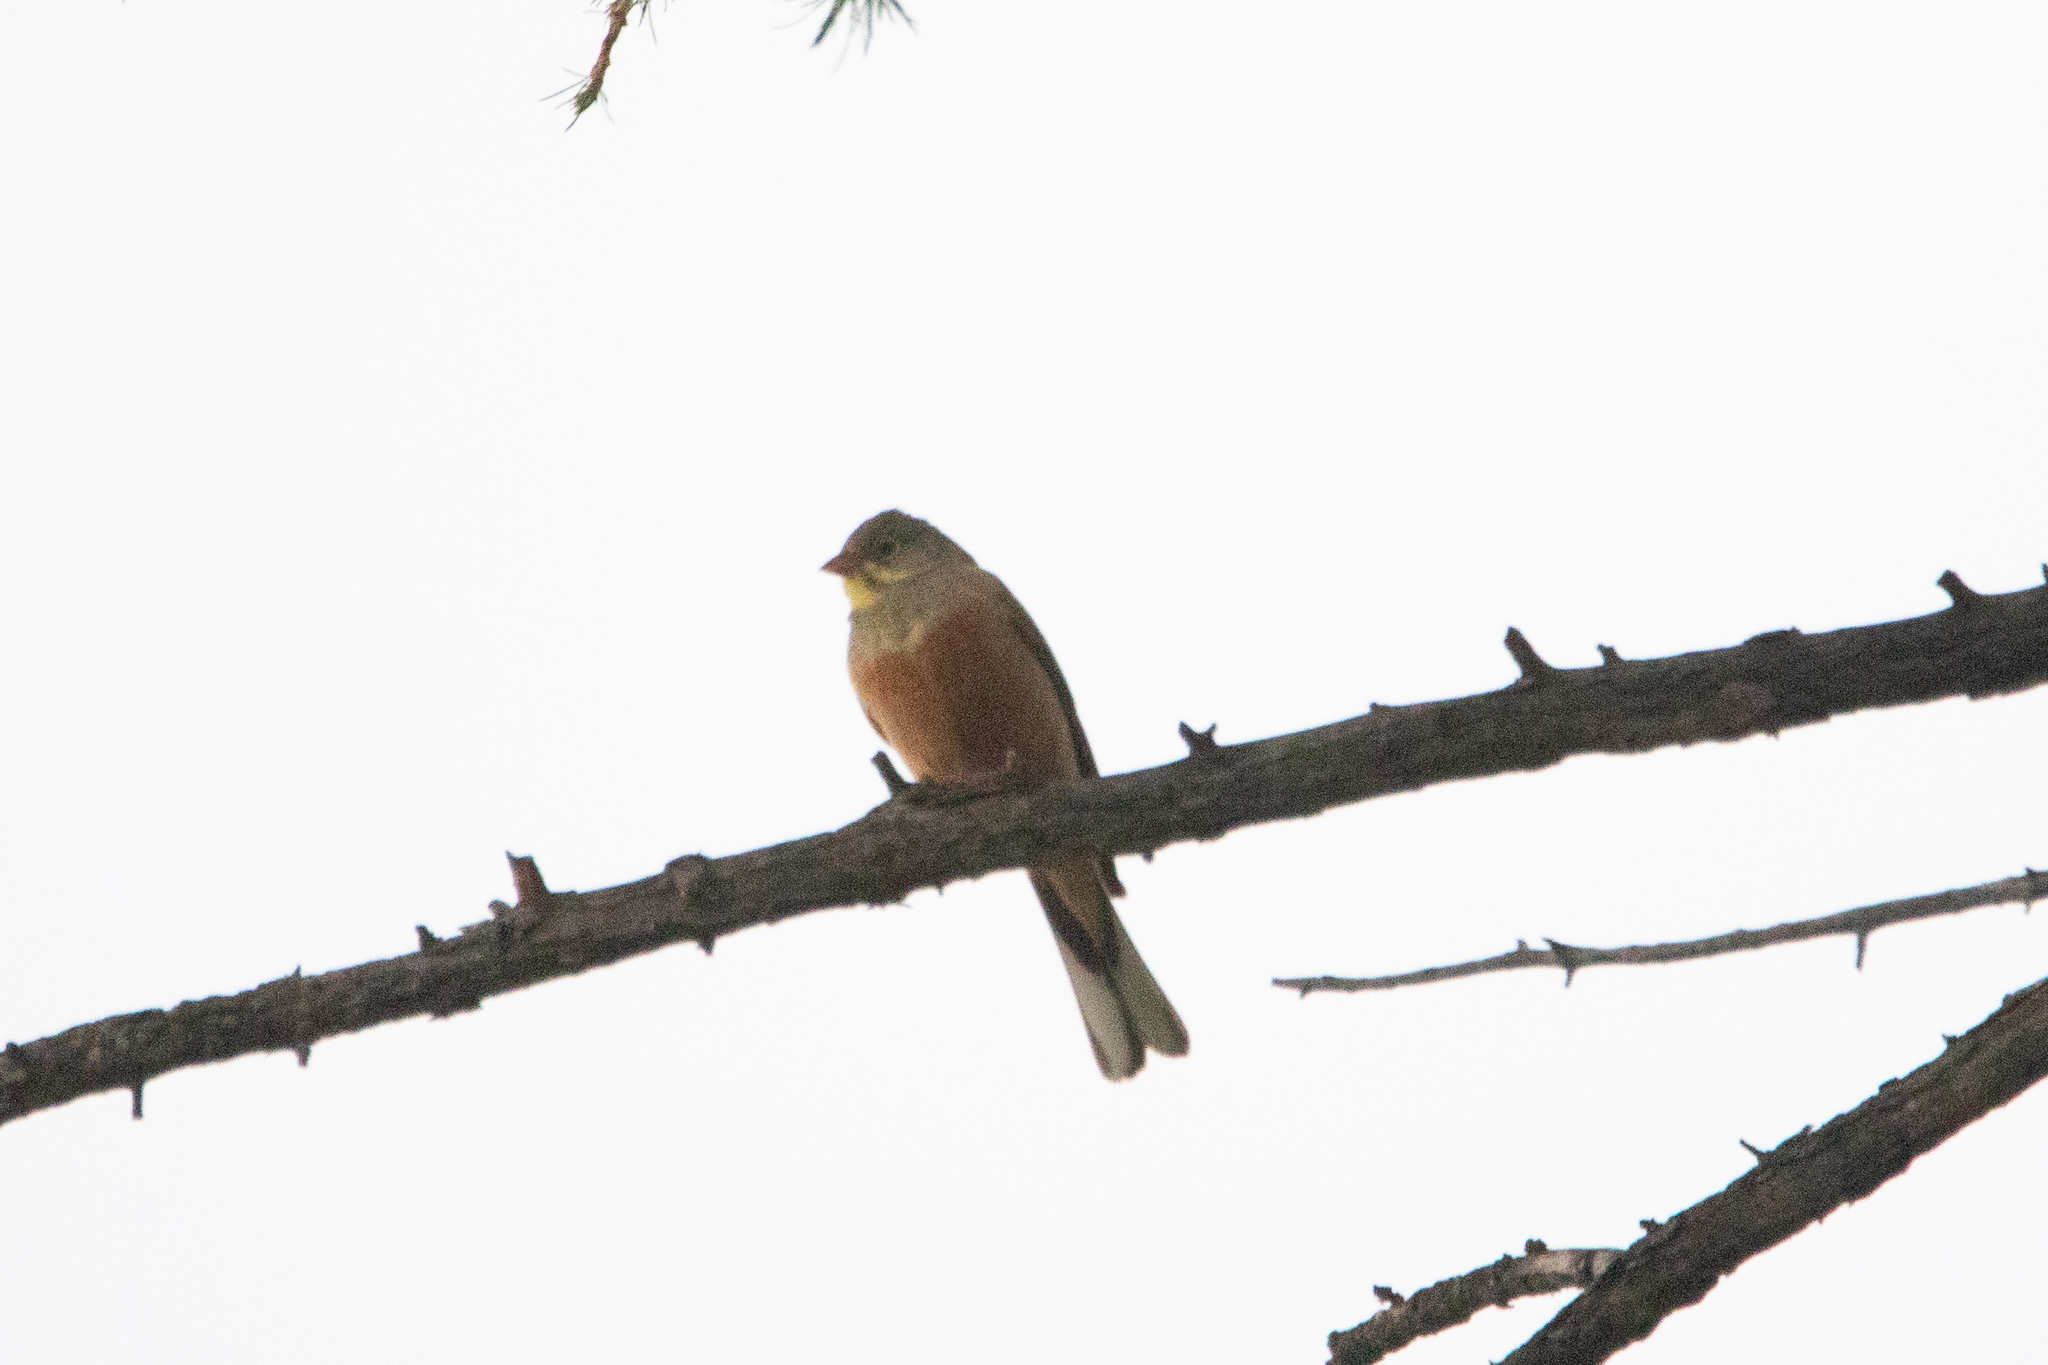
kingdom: Animalia
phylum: Chordata
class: Aves
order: Passeriformes
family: Emberizidae
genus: Emberiza
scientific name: Emberiza hortulana
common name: Ortolan bunting
